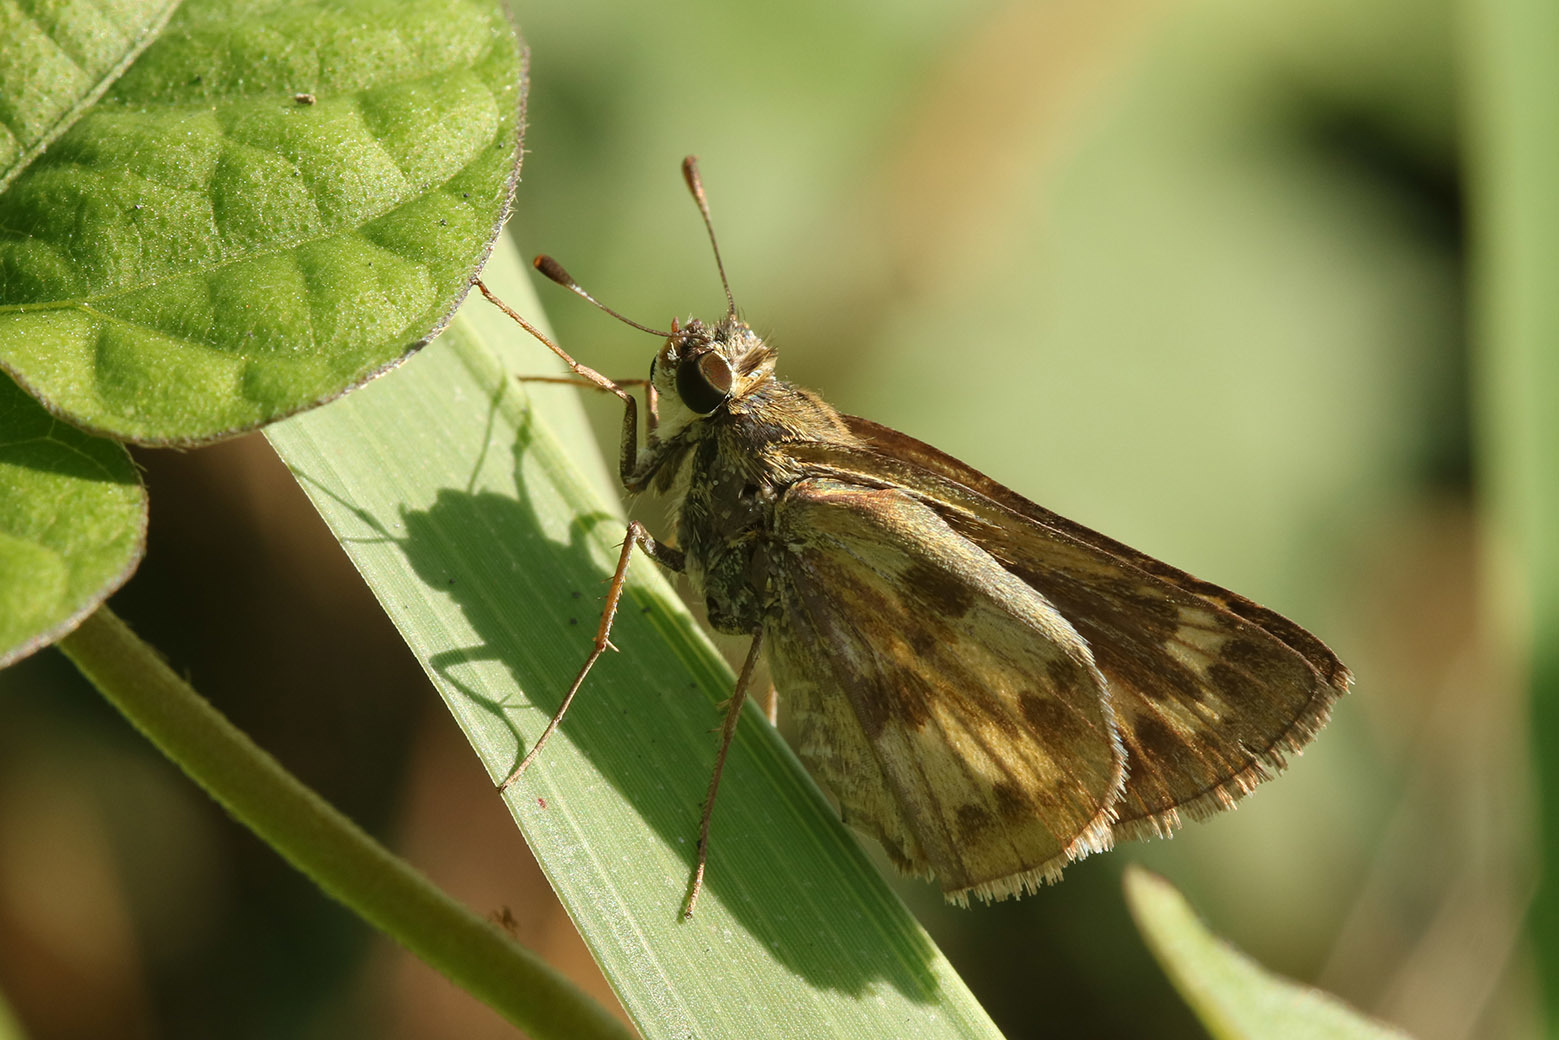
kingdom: Animalia
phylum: Arthropoda
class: Insecta
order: Lepidoptera
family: Hesperiidae
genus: Polites
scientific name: Polites vibex
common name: Whirlabout
